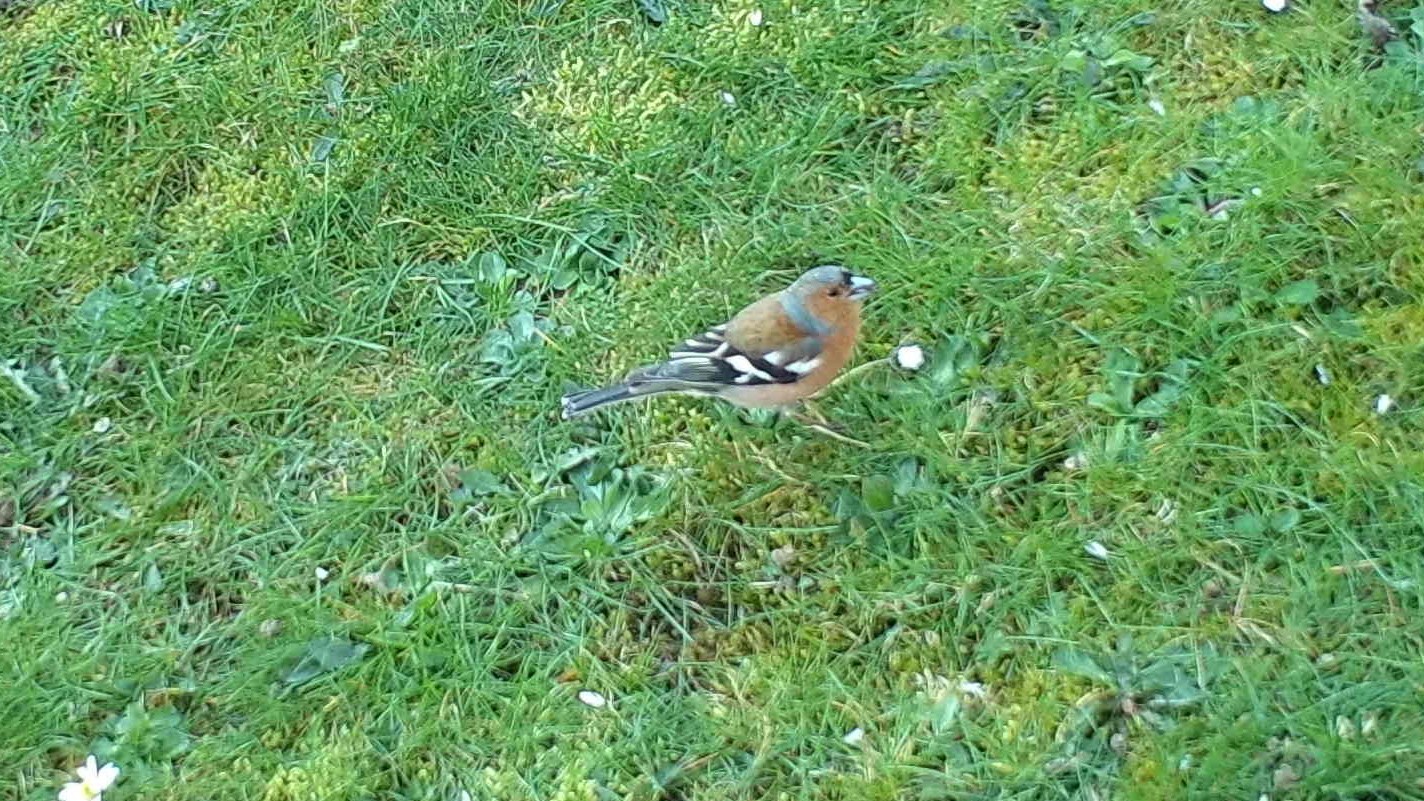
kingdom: Animalia
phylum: Chordata
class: Aves
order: Passeriformes
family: Fringillidae
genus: Fringilla
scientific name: Fringilla coelebs
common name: Common chaffinch
